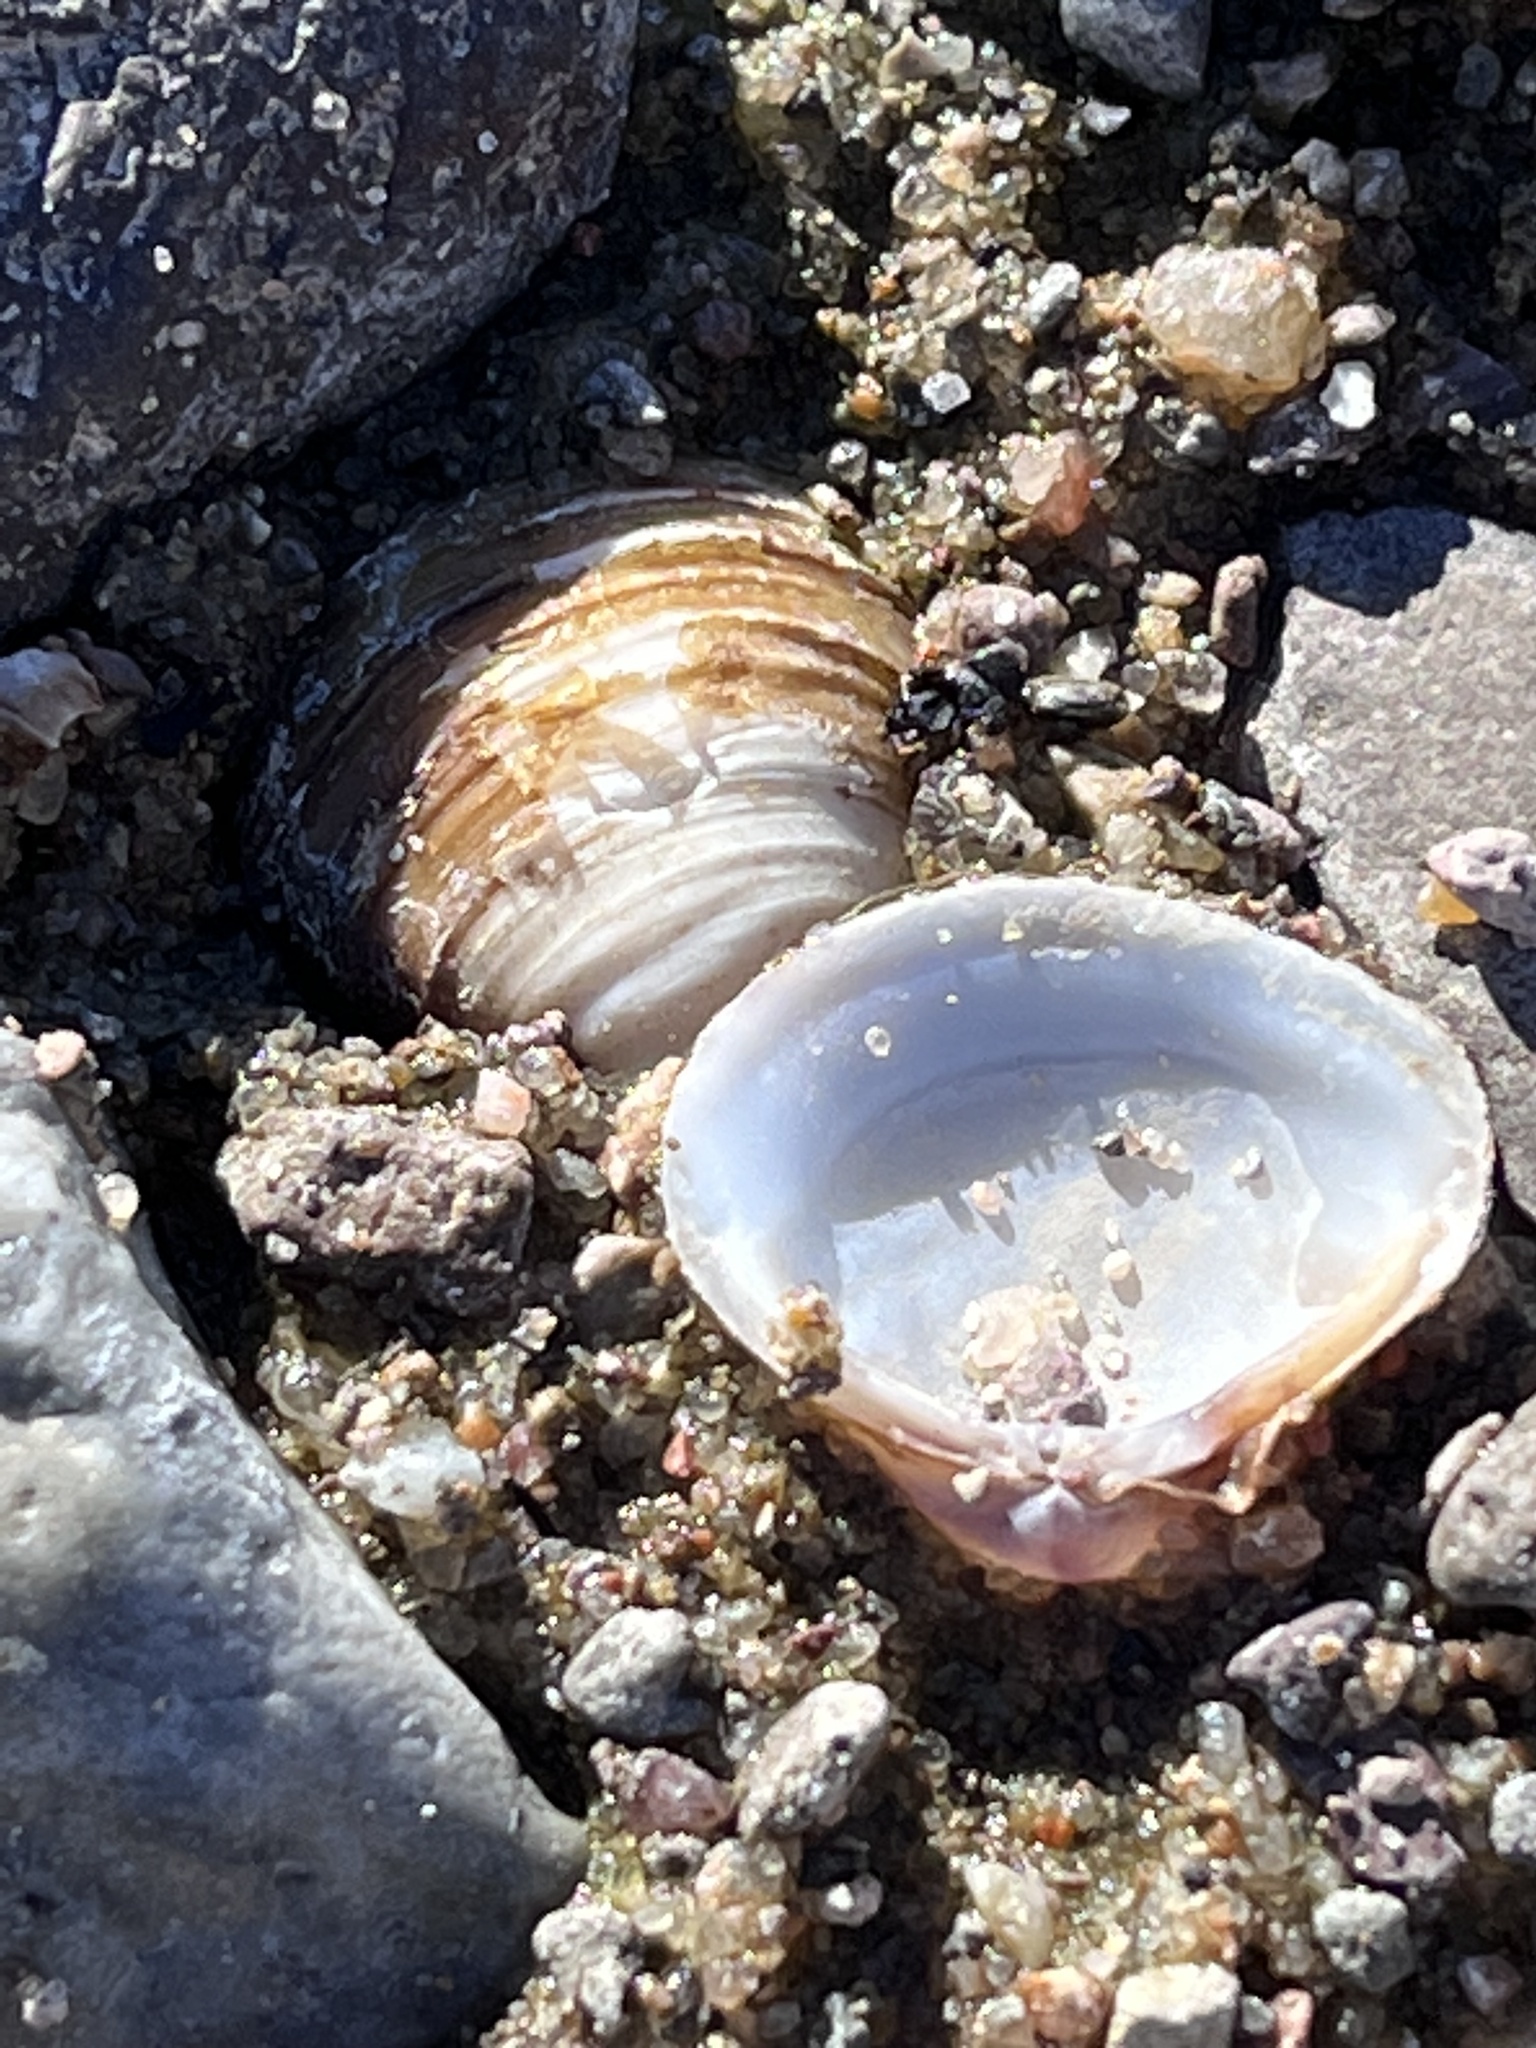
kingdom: Animalia
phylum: Mollusca
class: Bivalvia
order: Venerida
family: Cyrenidae
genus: Corbicula
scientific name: Corbicula fluminea
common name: Asian clam
